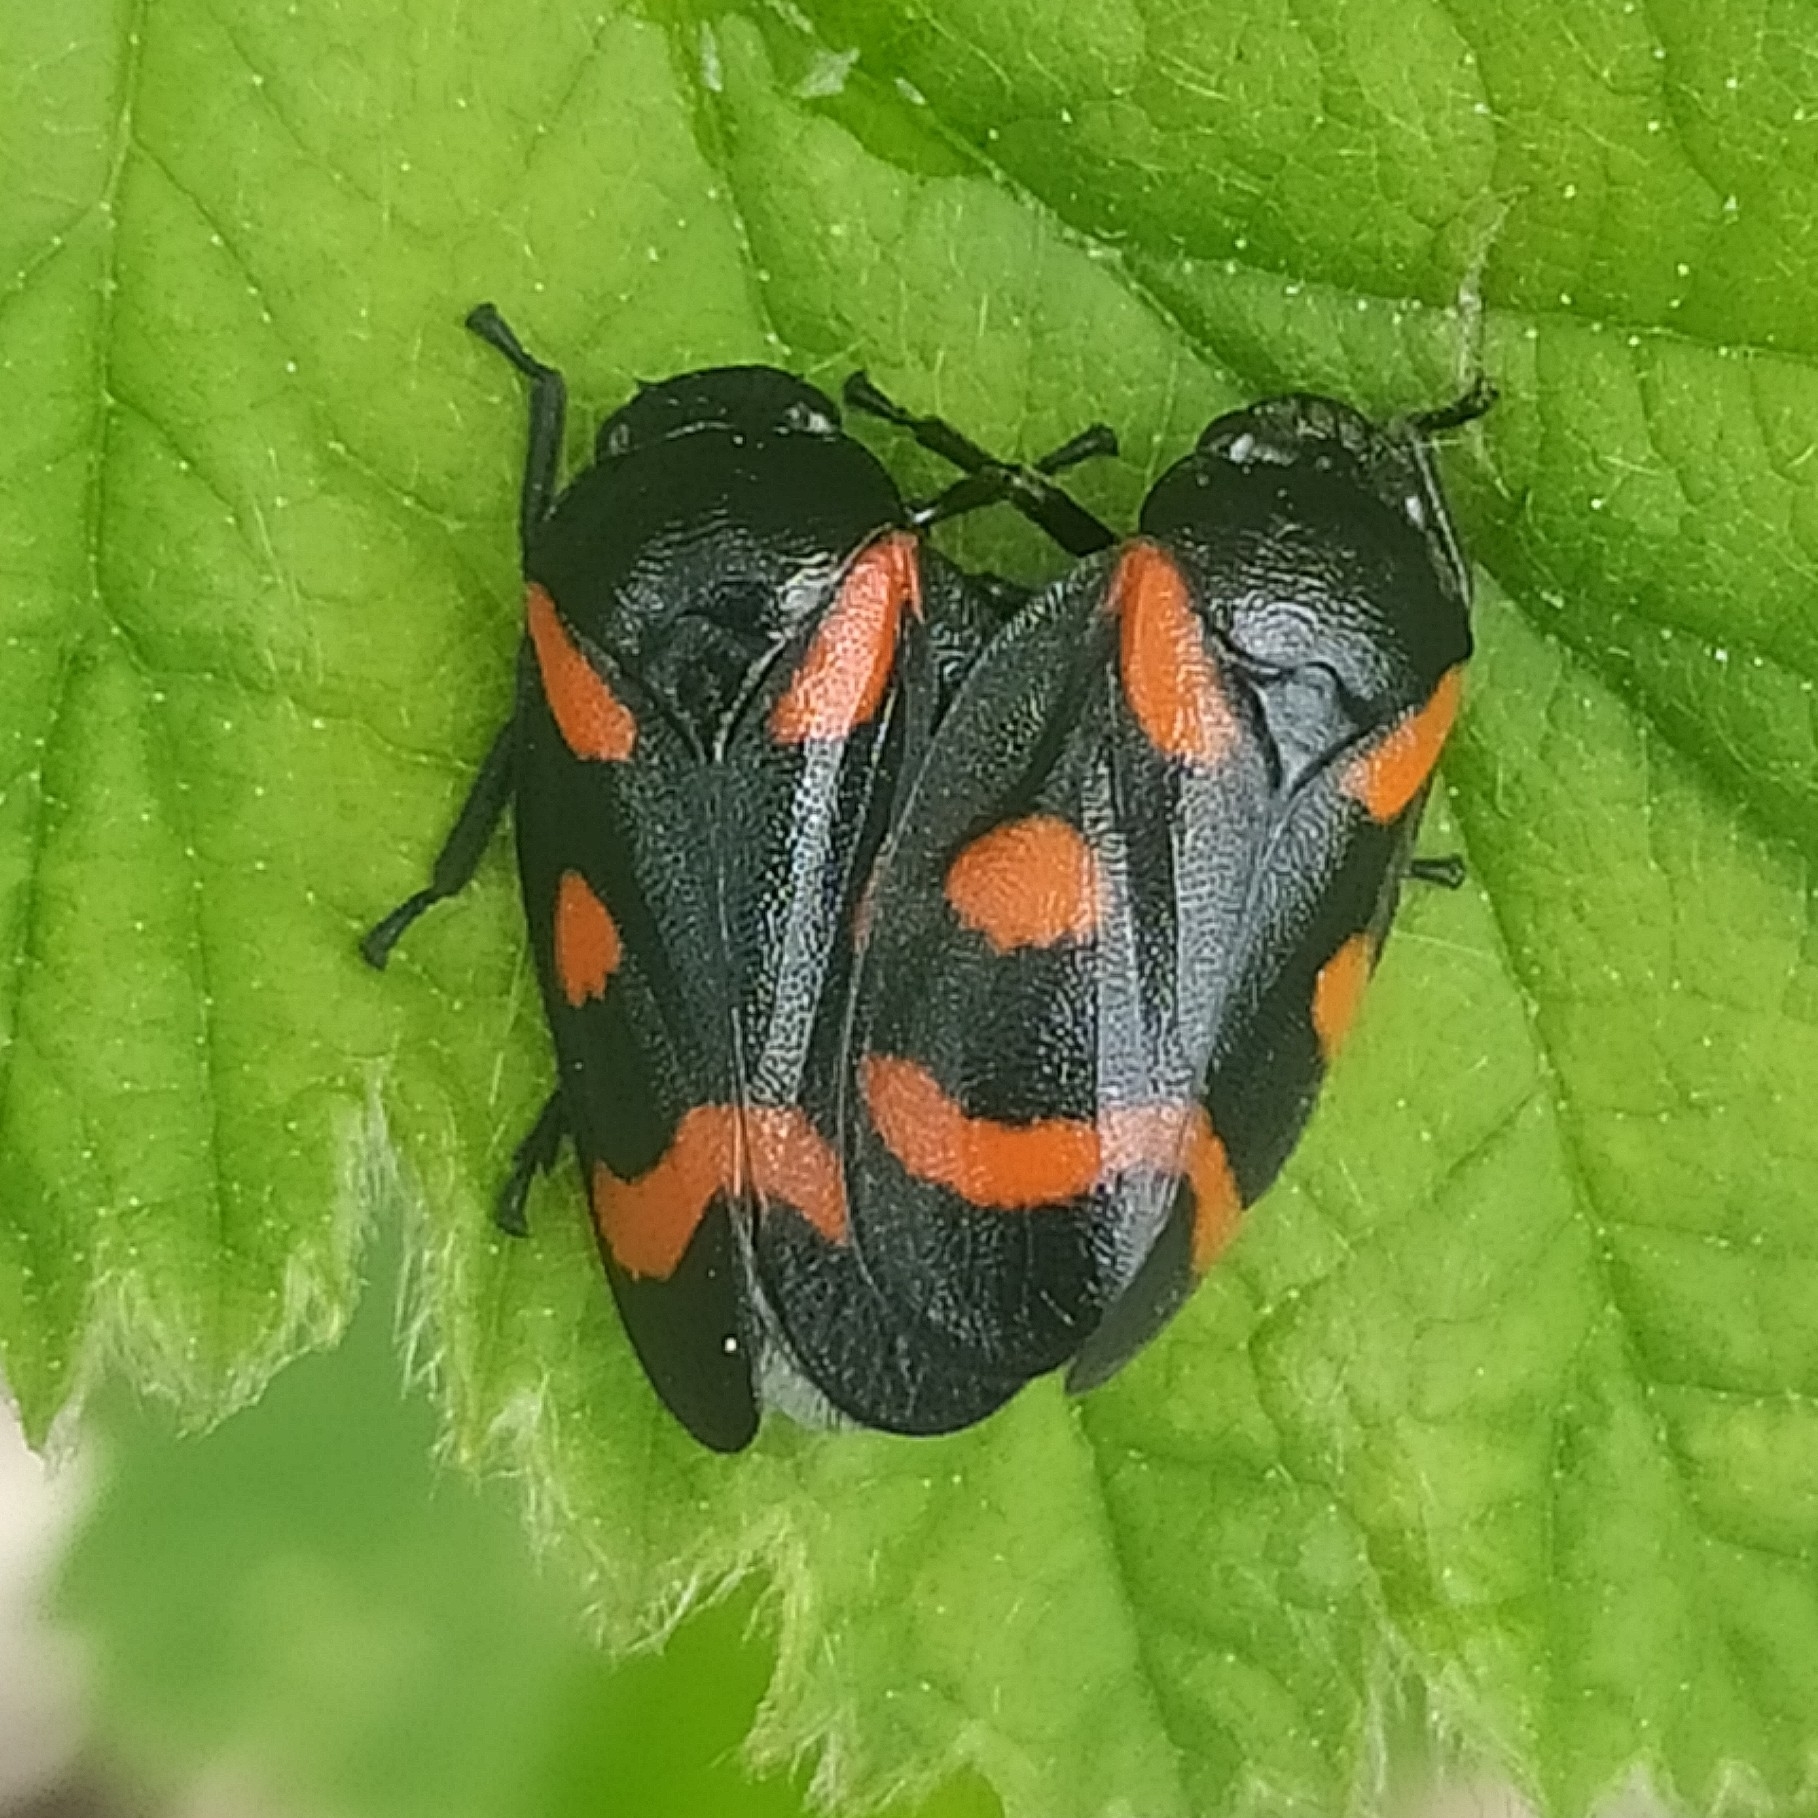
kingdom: Animalia
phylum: Arthropoda
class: Insecta
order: Hemiptera
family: Cercopidae
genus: Cercopis
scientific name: Cercopis sanguinolenta
